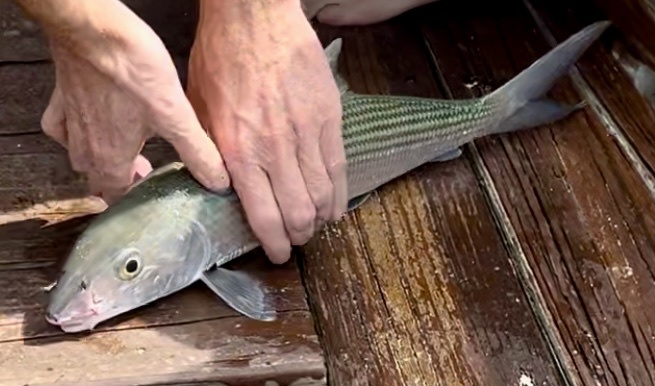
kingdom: Animalia
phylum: Chordata
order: Albuliformes
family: Albulidae
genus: Albula
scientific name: Albula vulpes
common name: Bonefish
